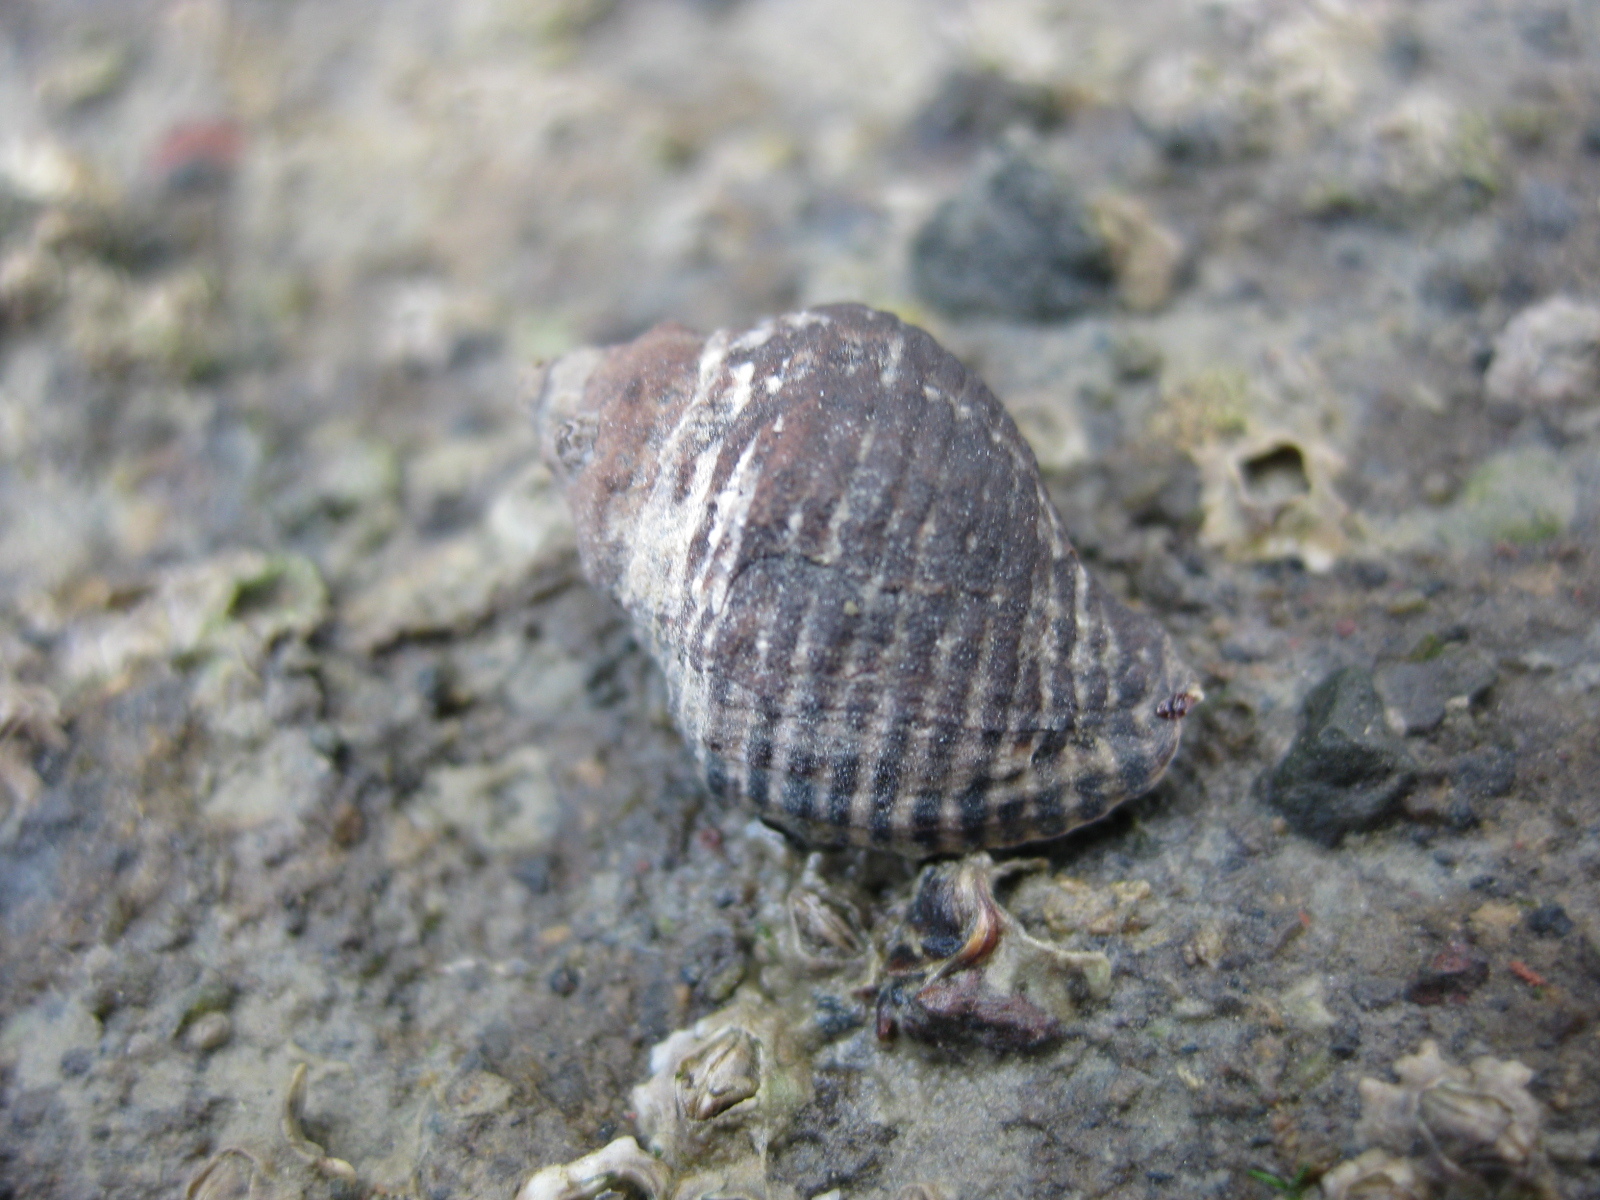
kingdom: Animalia
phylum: Mollusca
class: Gastropoda
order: Neogastropoda
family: Muricidae
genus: Haustrum
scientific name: Haustrum albomarginatum
